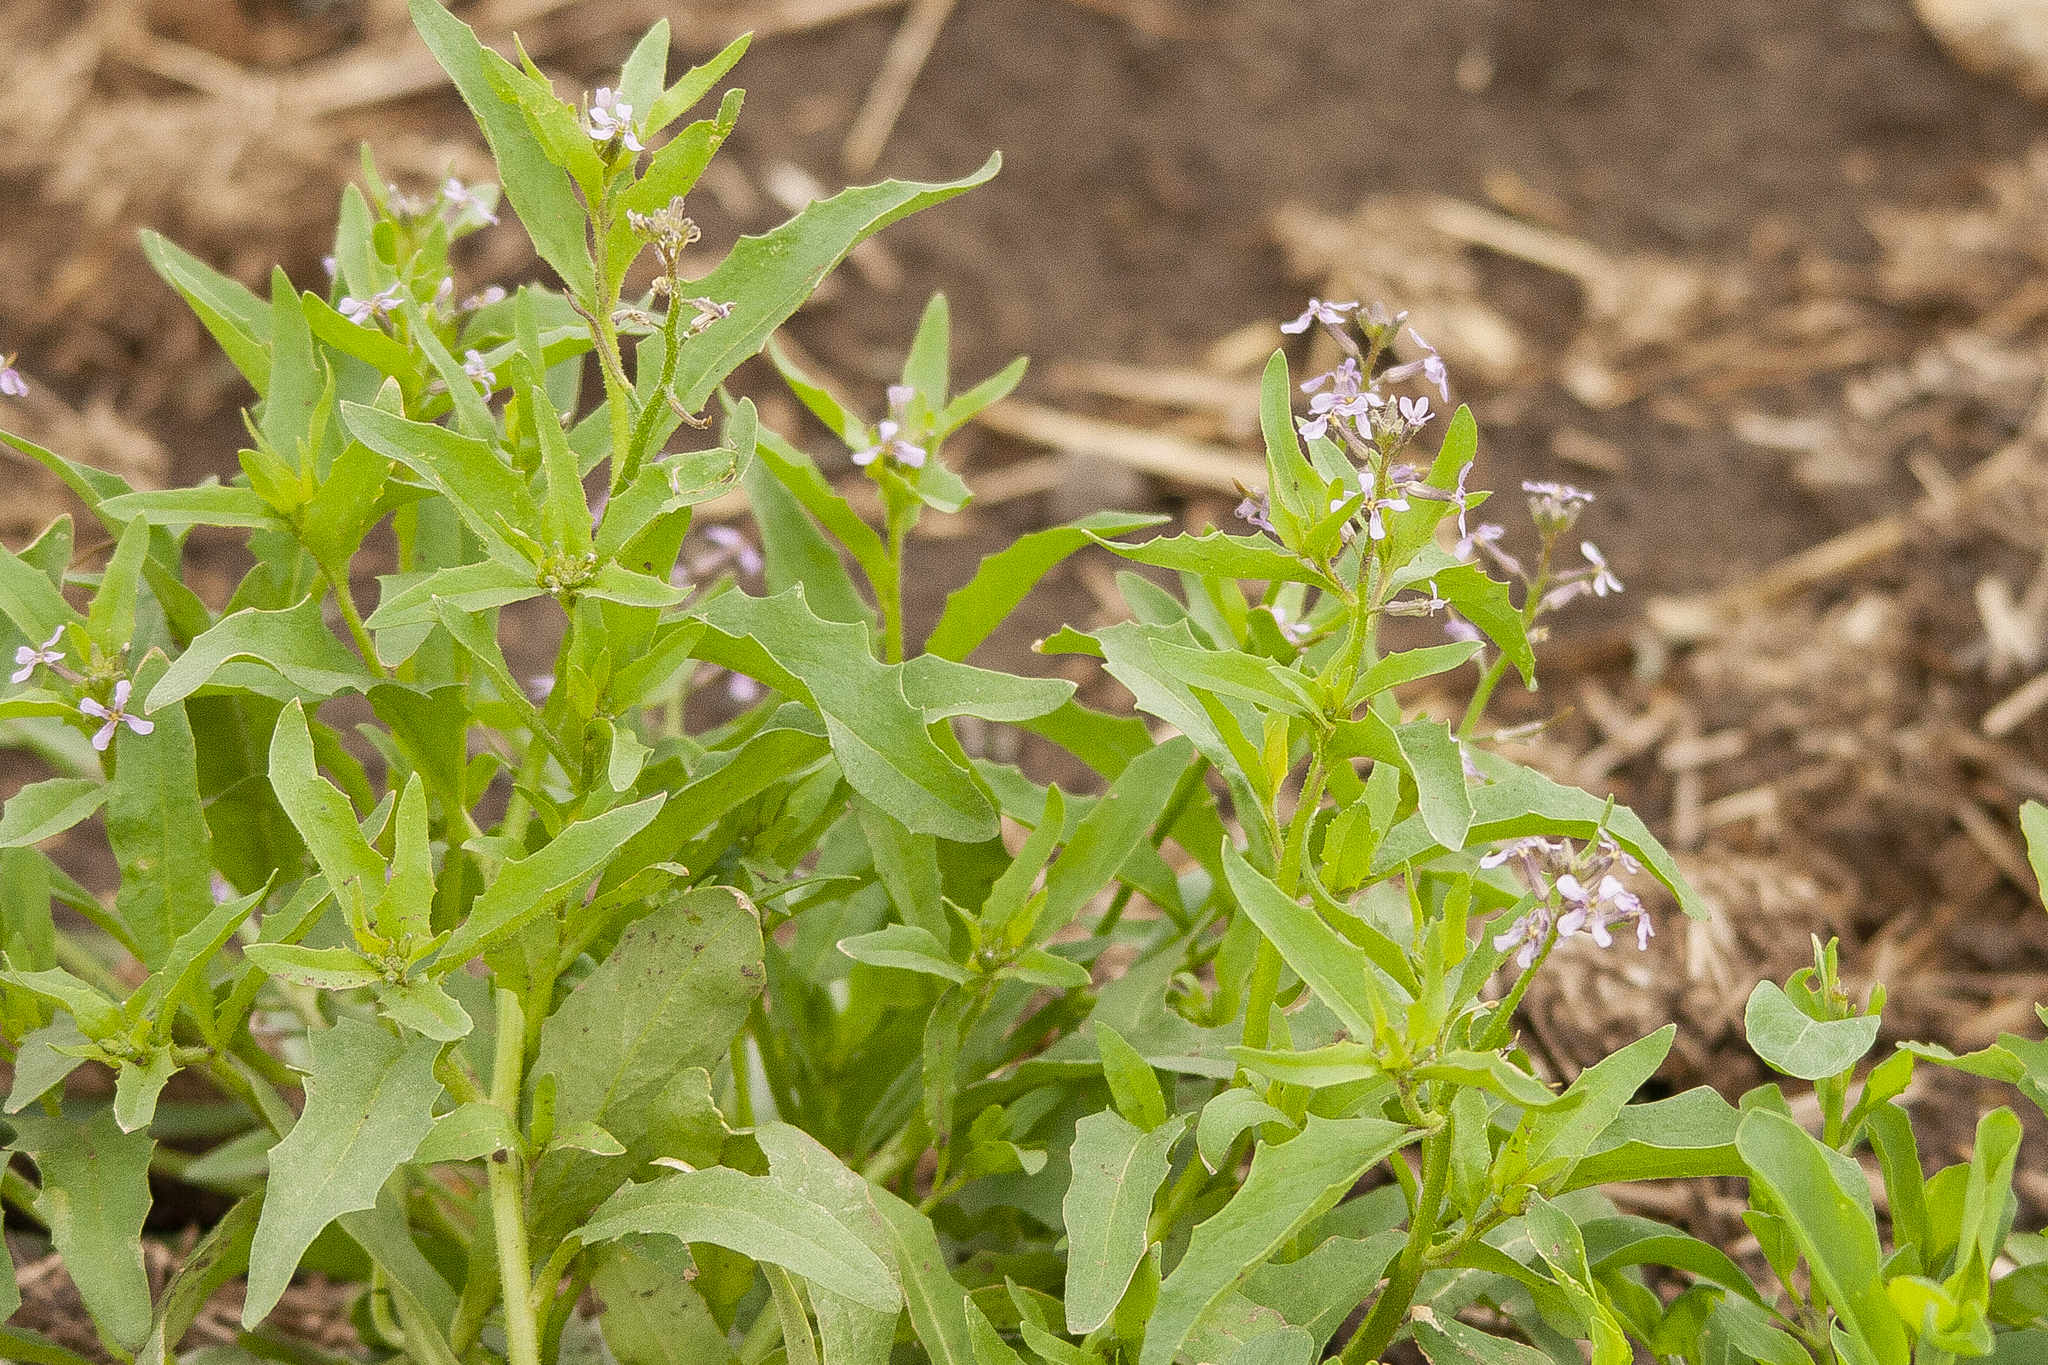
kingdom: Plantae
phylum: Tracheophyta
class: Magnoliopsida
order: Brassicales
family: Brassicaceae
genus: Chorispora
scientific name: Chorispora tenella
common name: Crossflower
